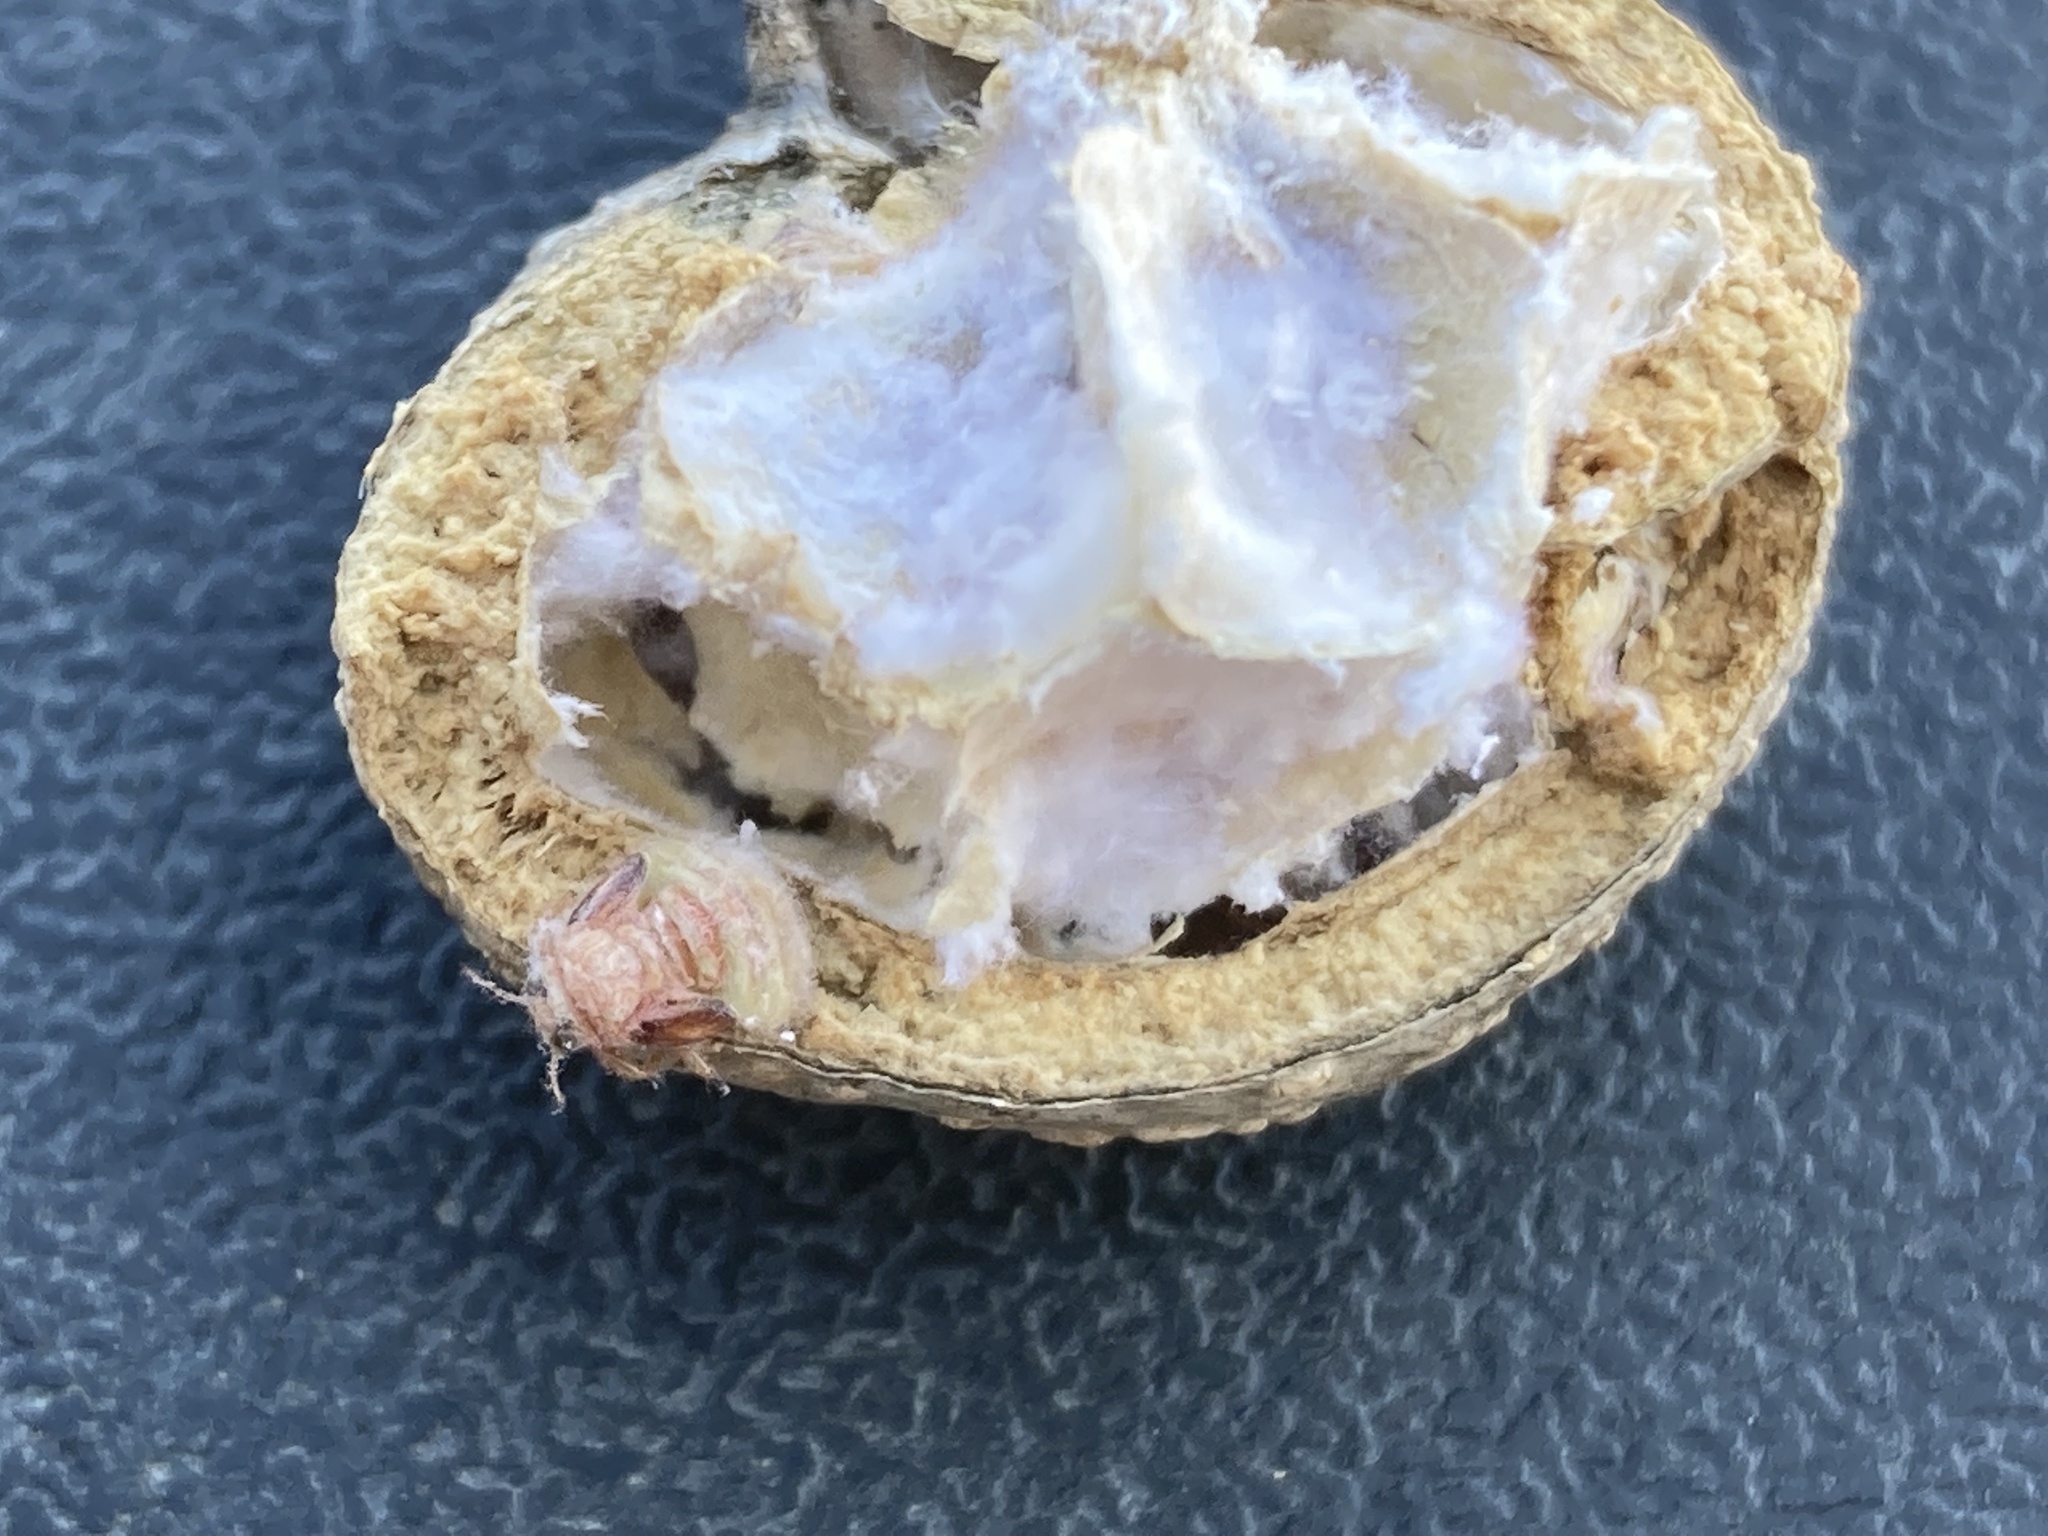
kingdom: Animalia
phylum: Arthropoda
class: Insecta
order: Hemiptera
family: Aphalaridae
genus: Pachypsylla
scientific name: Pachypsylla venusta
